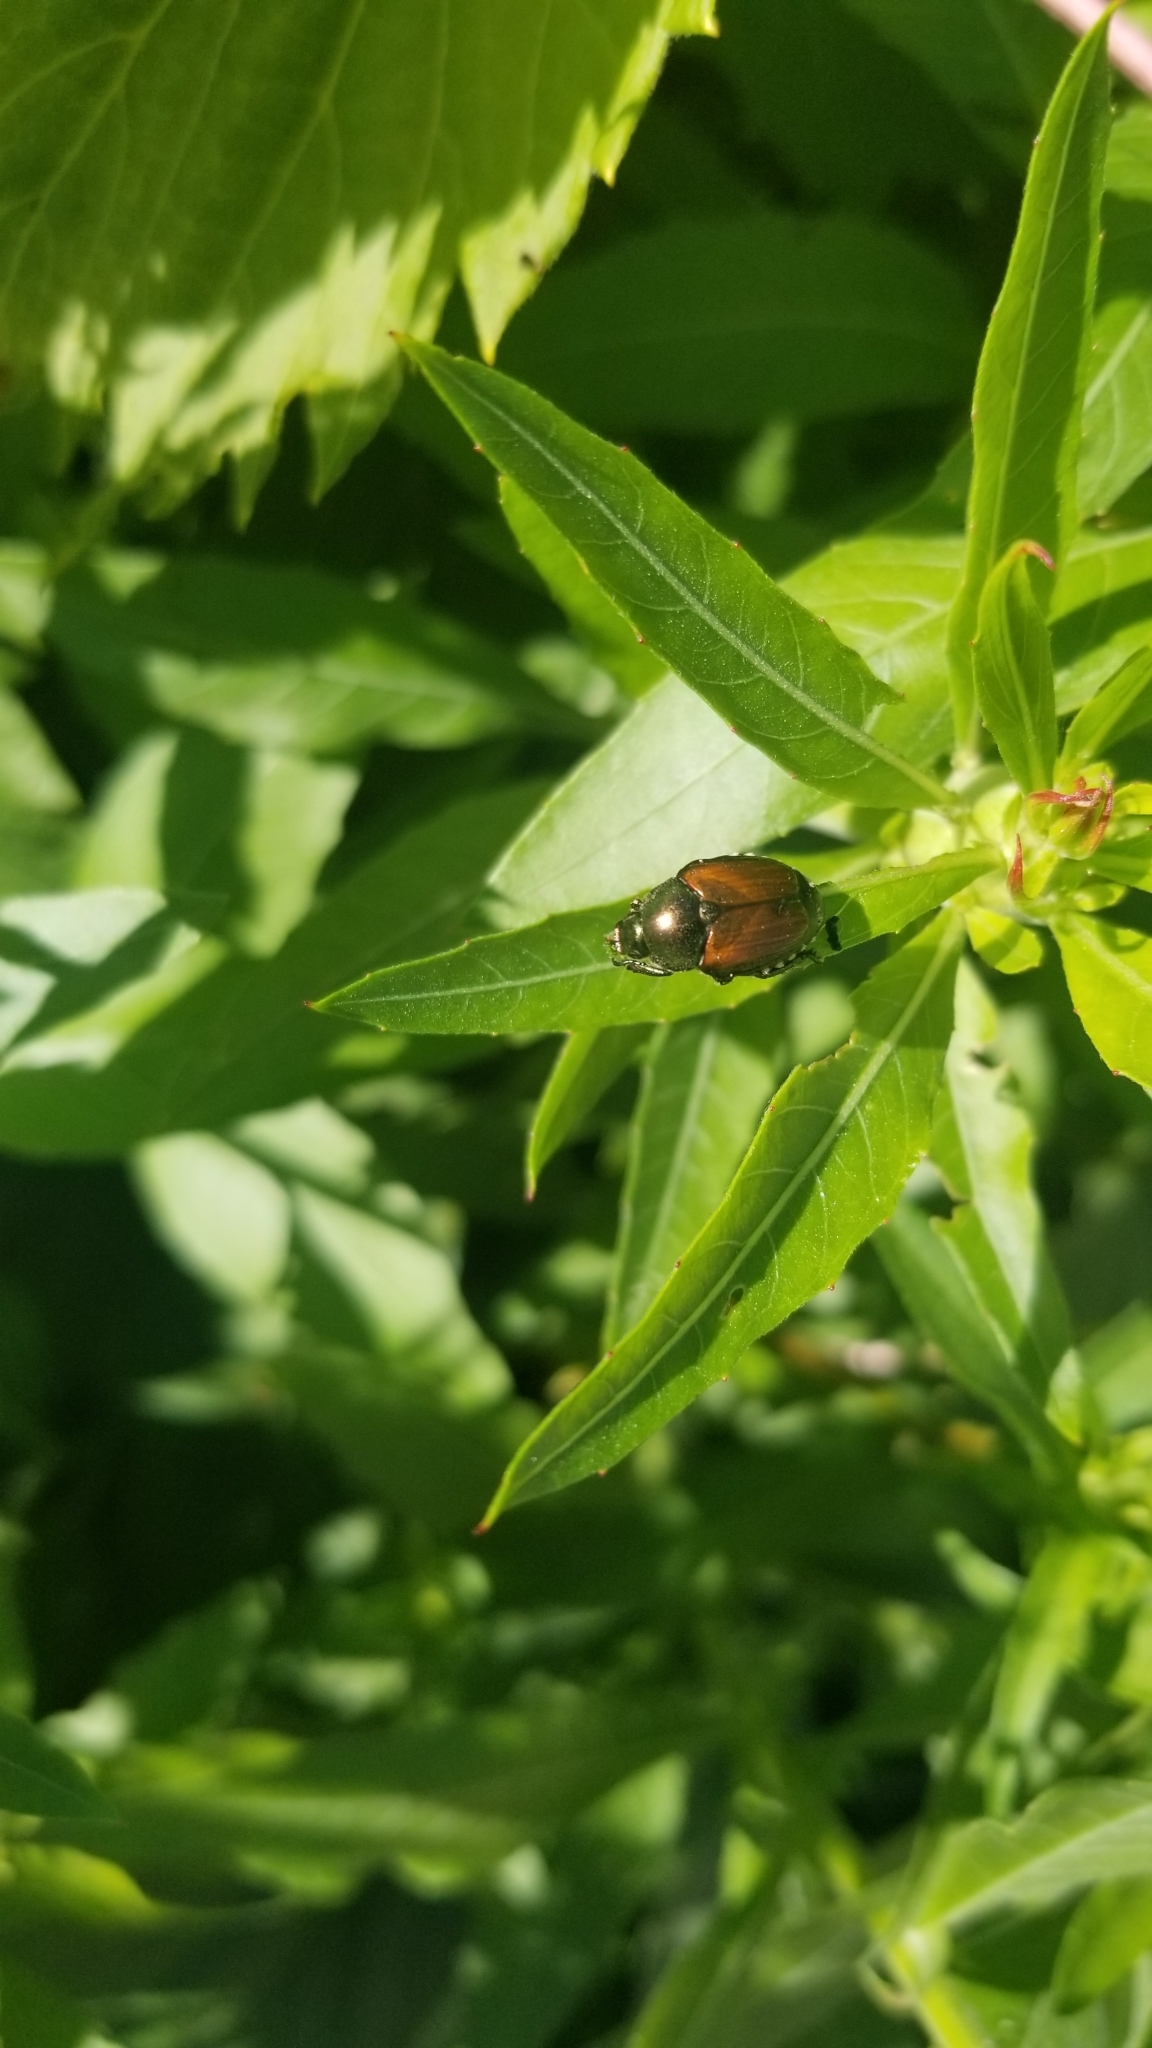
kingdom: Animalia
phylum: Arthropoda
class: Insecta
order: Coleoptera
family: Scarabaeidae
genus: Popillia
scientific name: Popillia japonica
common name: Japanese beetle
